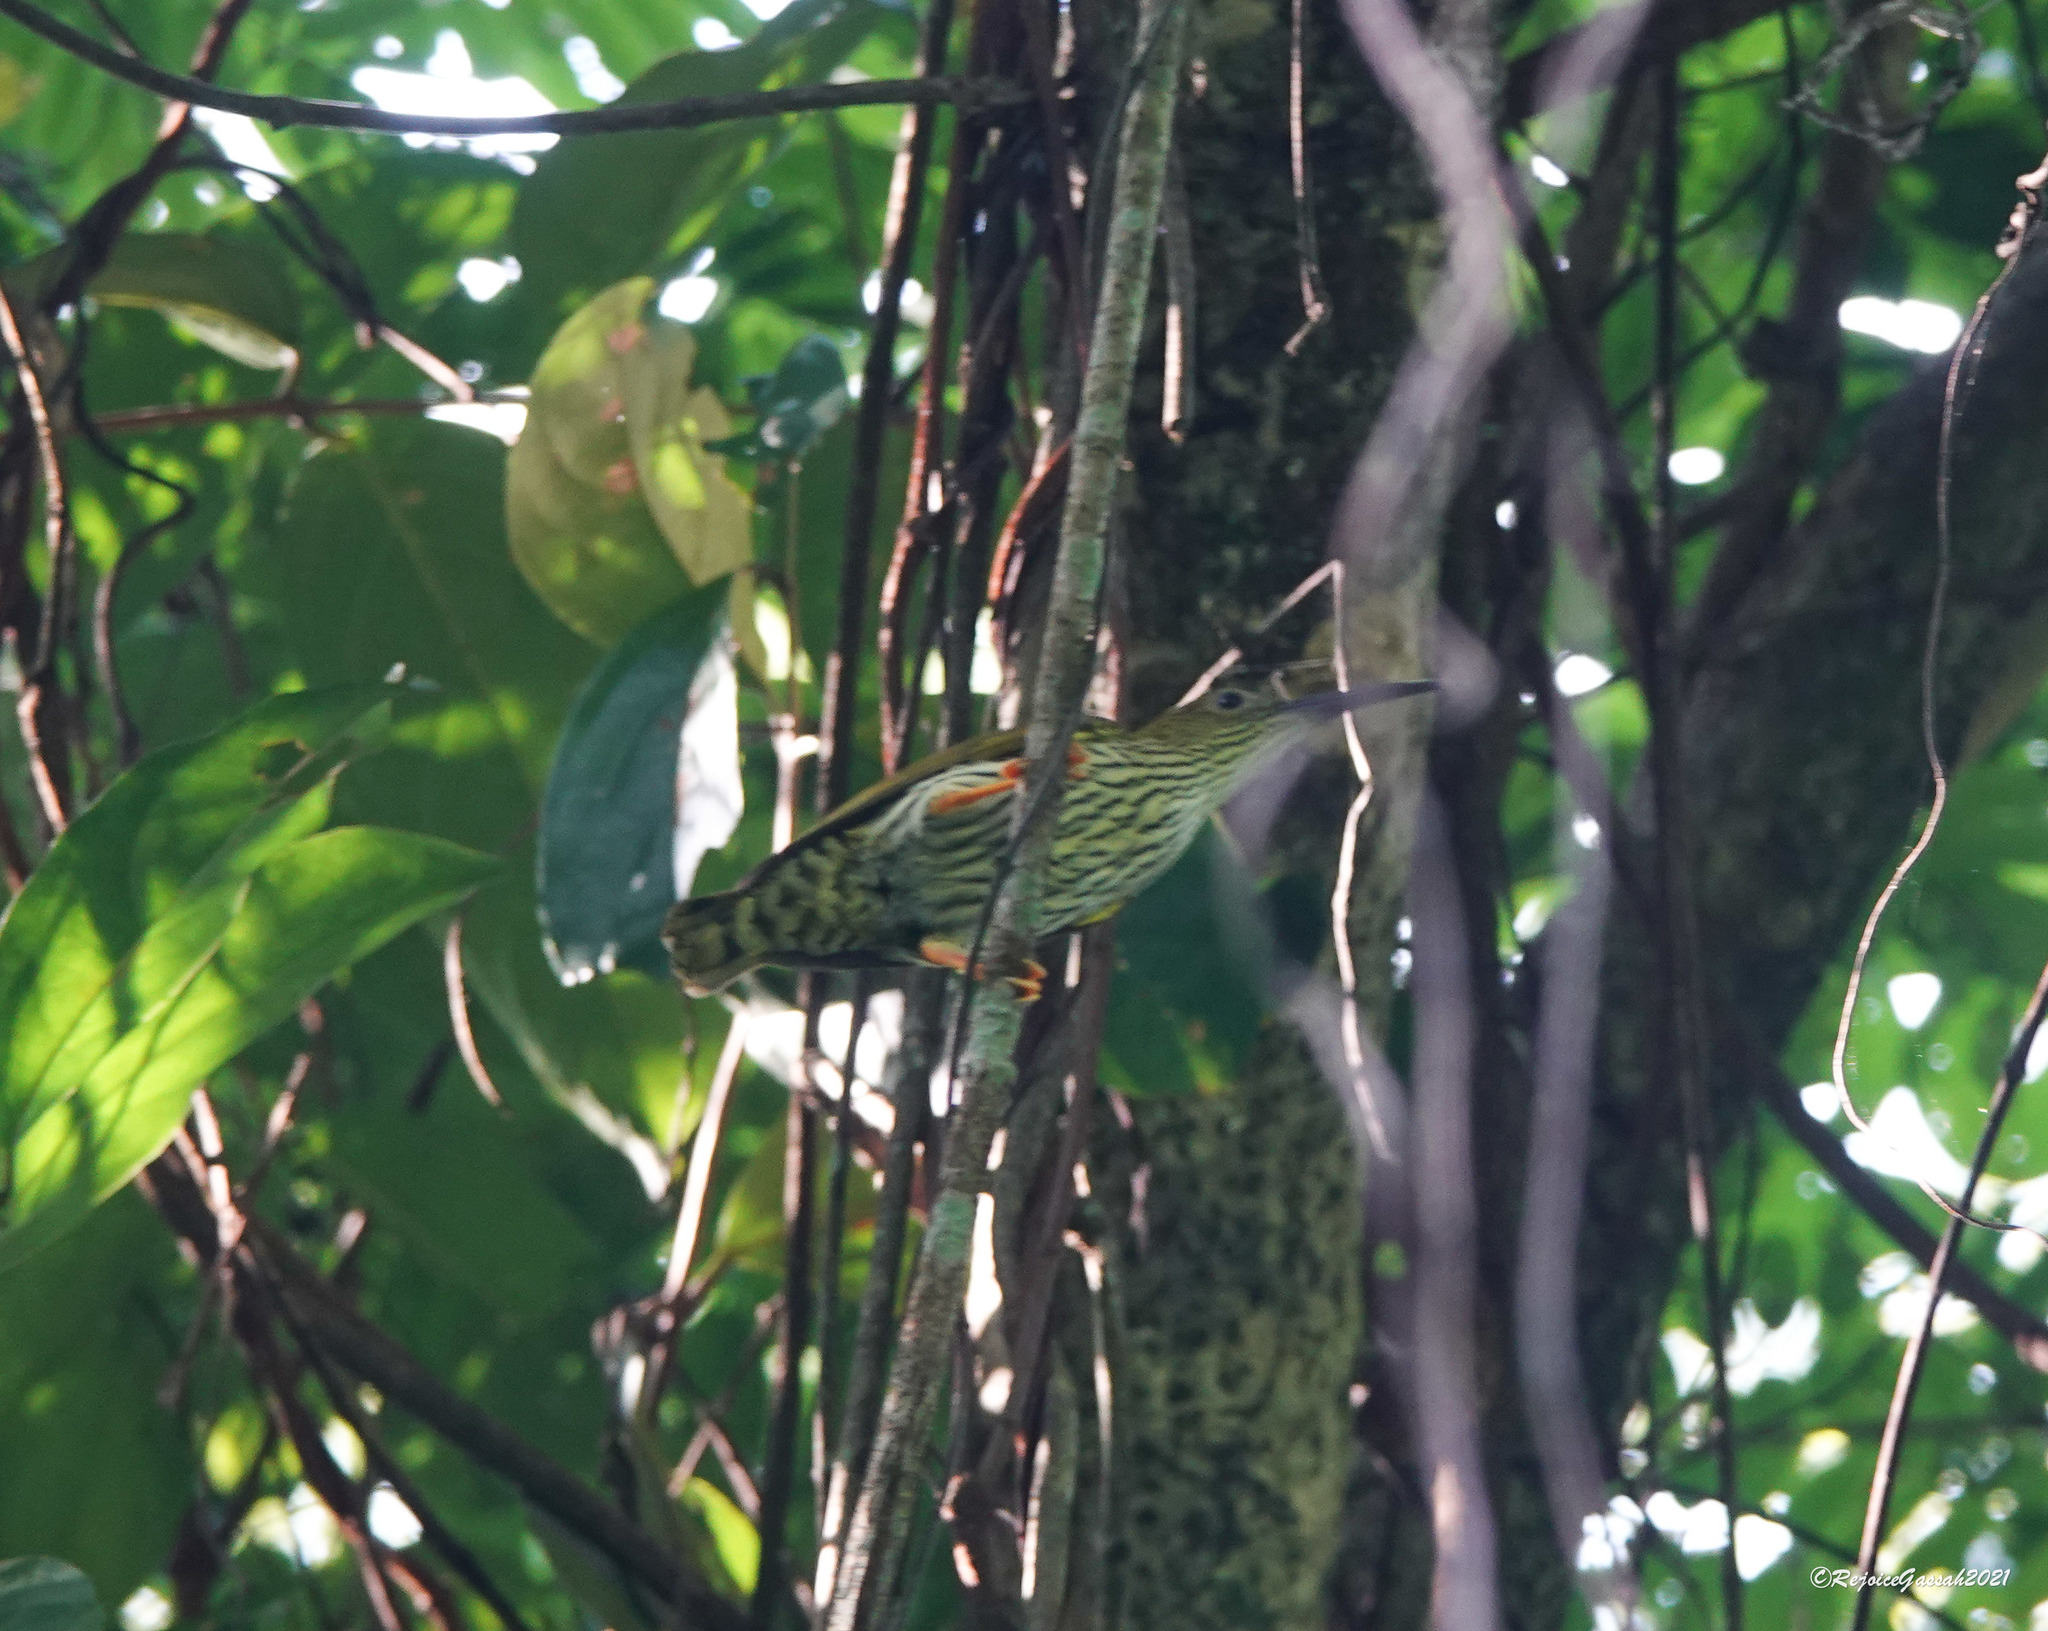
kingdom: Animalia
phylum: Chordata
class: Aves
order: Passeriformes
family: Nectariniidae
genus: Arachnothera
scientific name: Arachnothera magna
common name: Streaked spiderhunter
